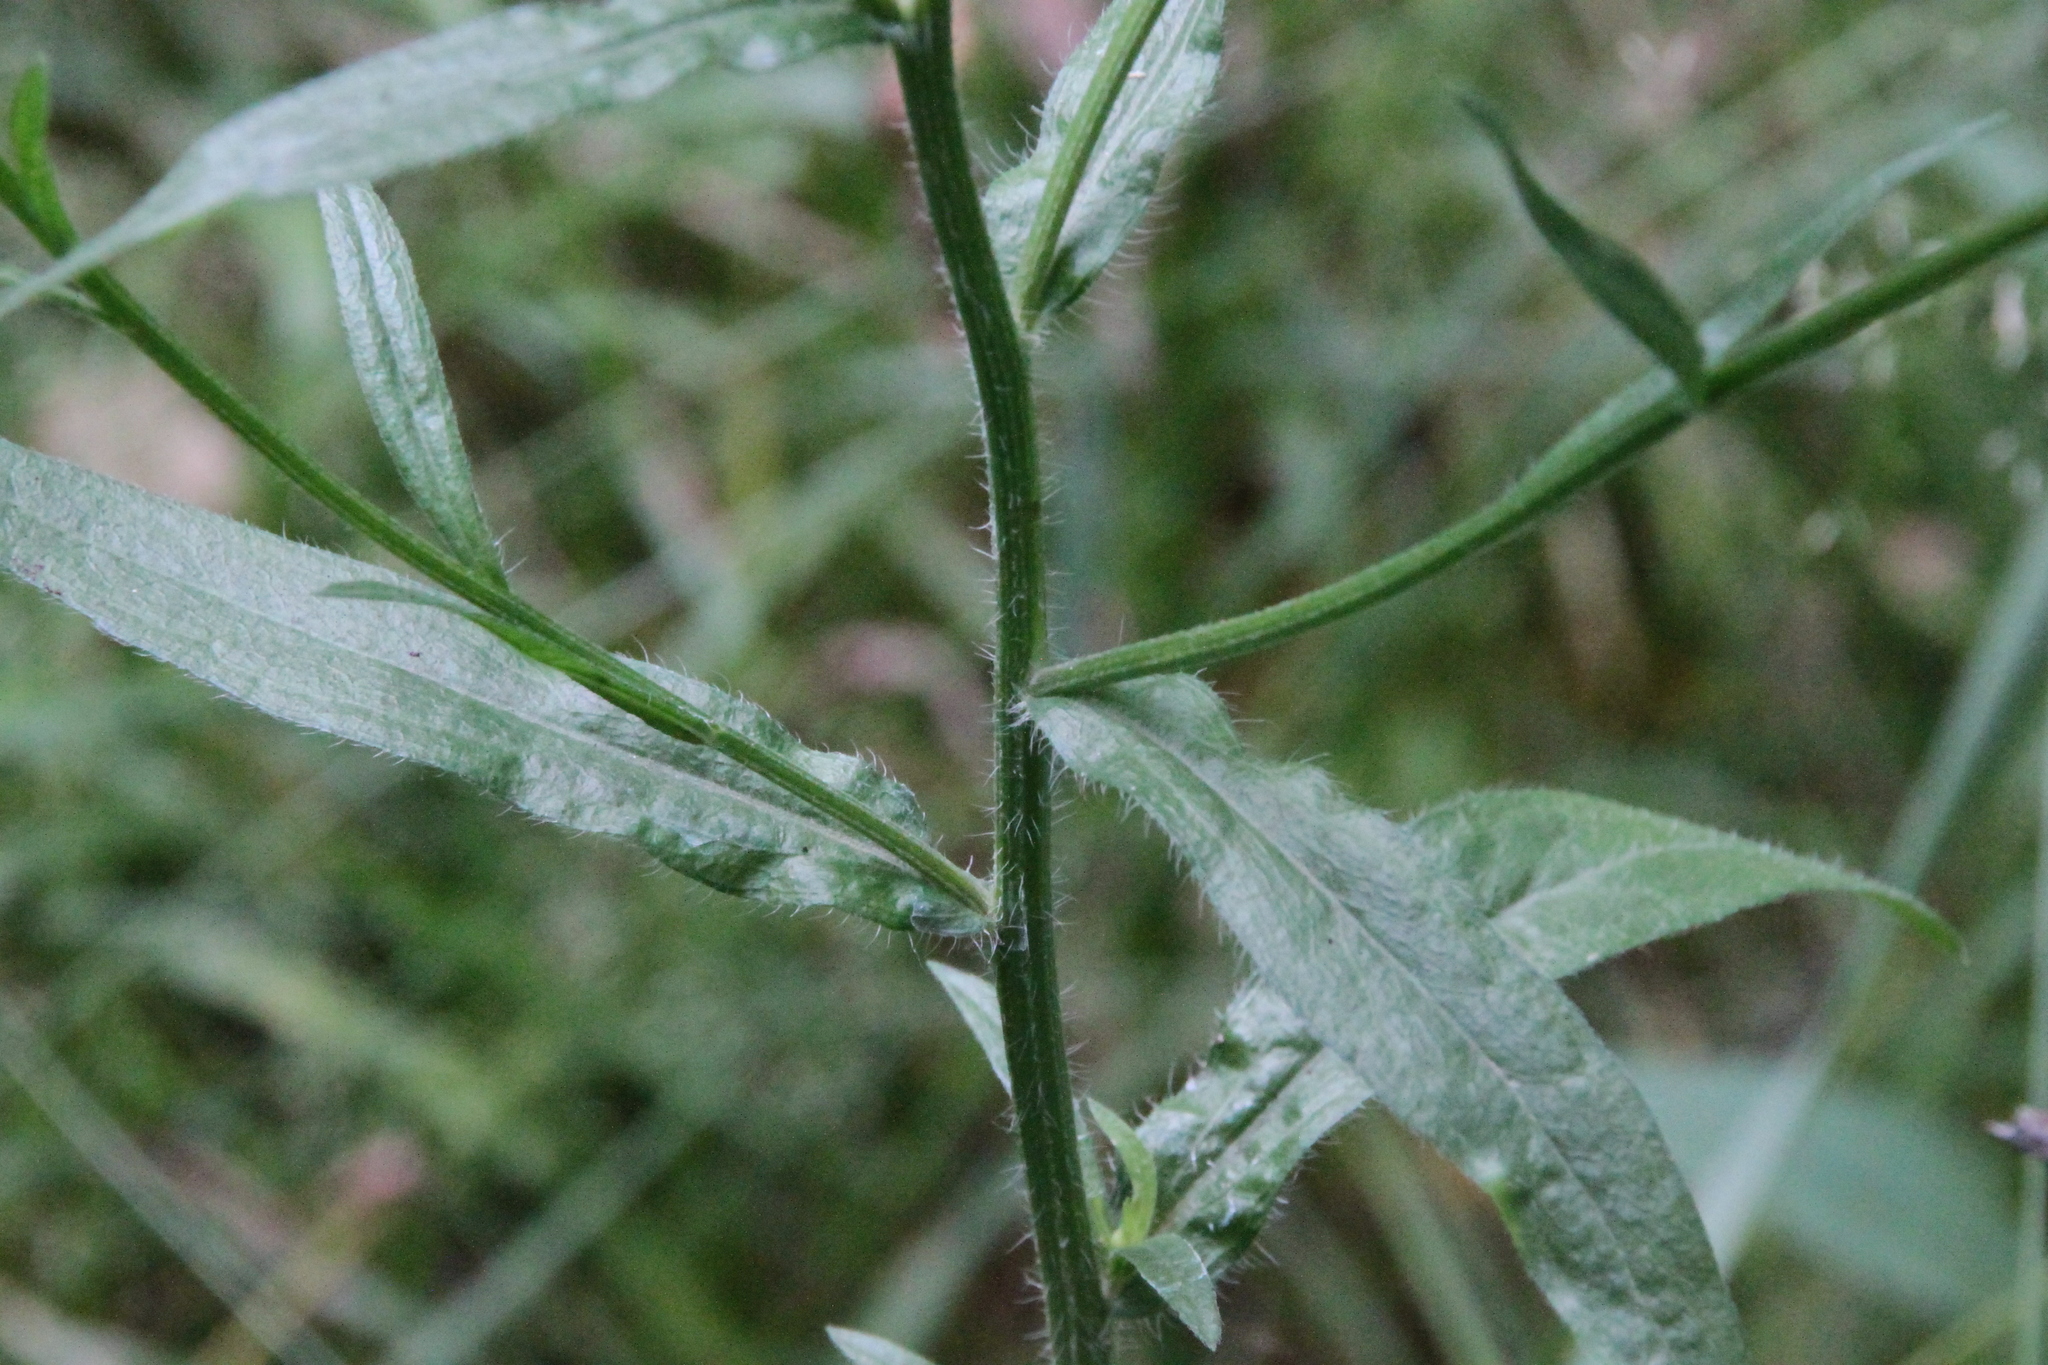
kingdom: Plantae
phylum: Tracheophyta
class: Magnoliopsida
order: Asterales
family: Asteraceae
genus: Erigeron
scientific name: Erigeron annuus
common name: Tall fleabane
